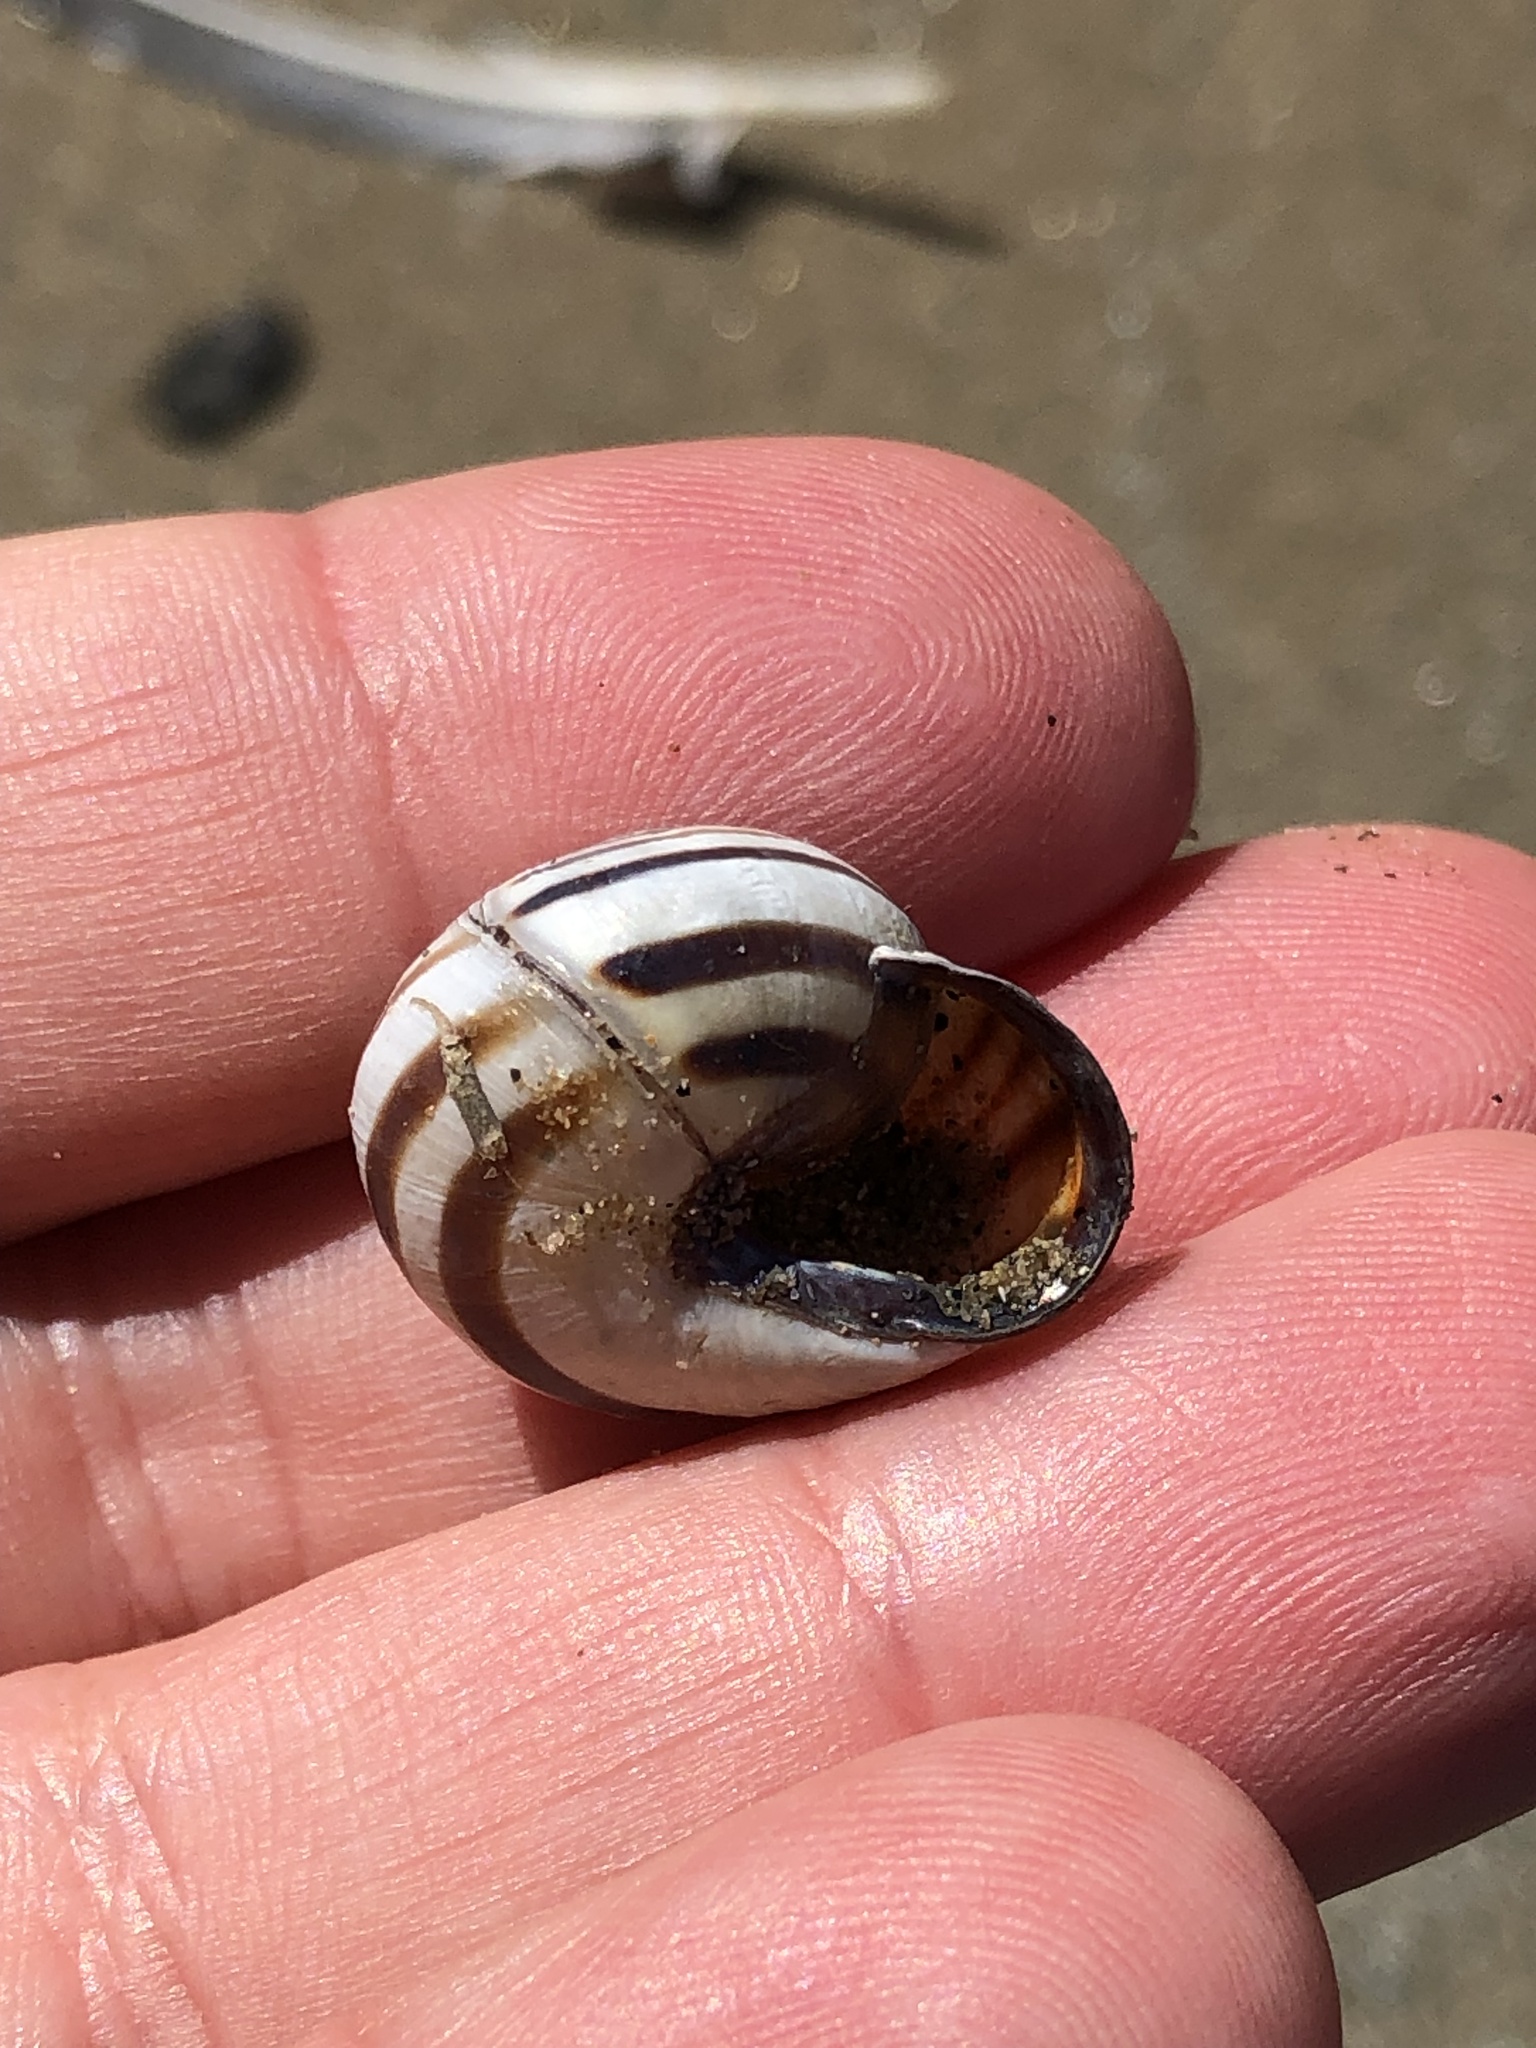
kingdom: Animalia
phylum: Mollusca
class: Gastropoda
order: Stylommatophora
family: Helicidae
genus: Cepaea
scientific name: Cepaea nemoralis
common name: Grovesnail
